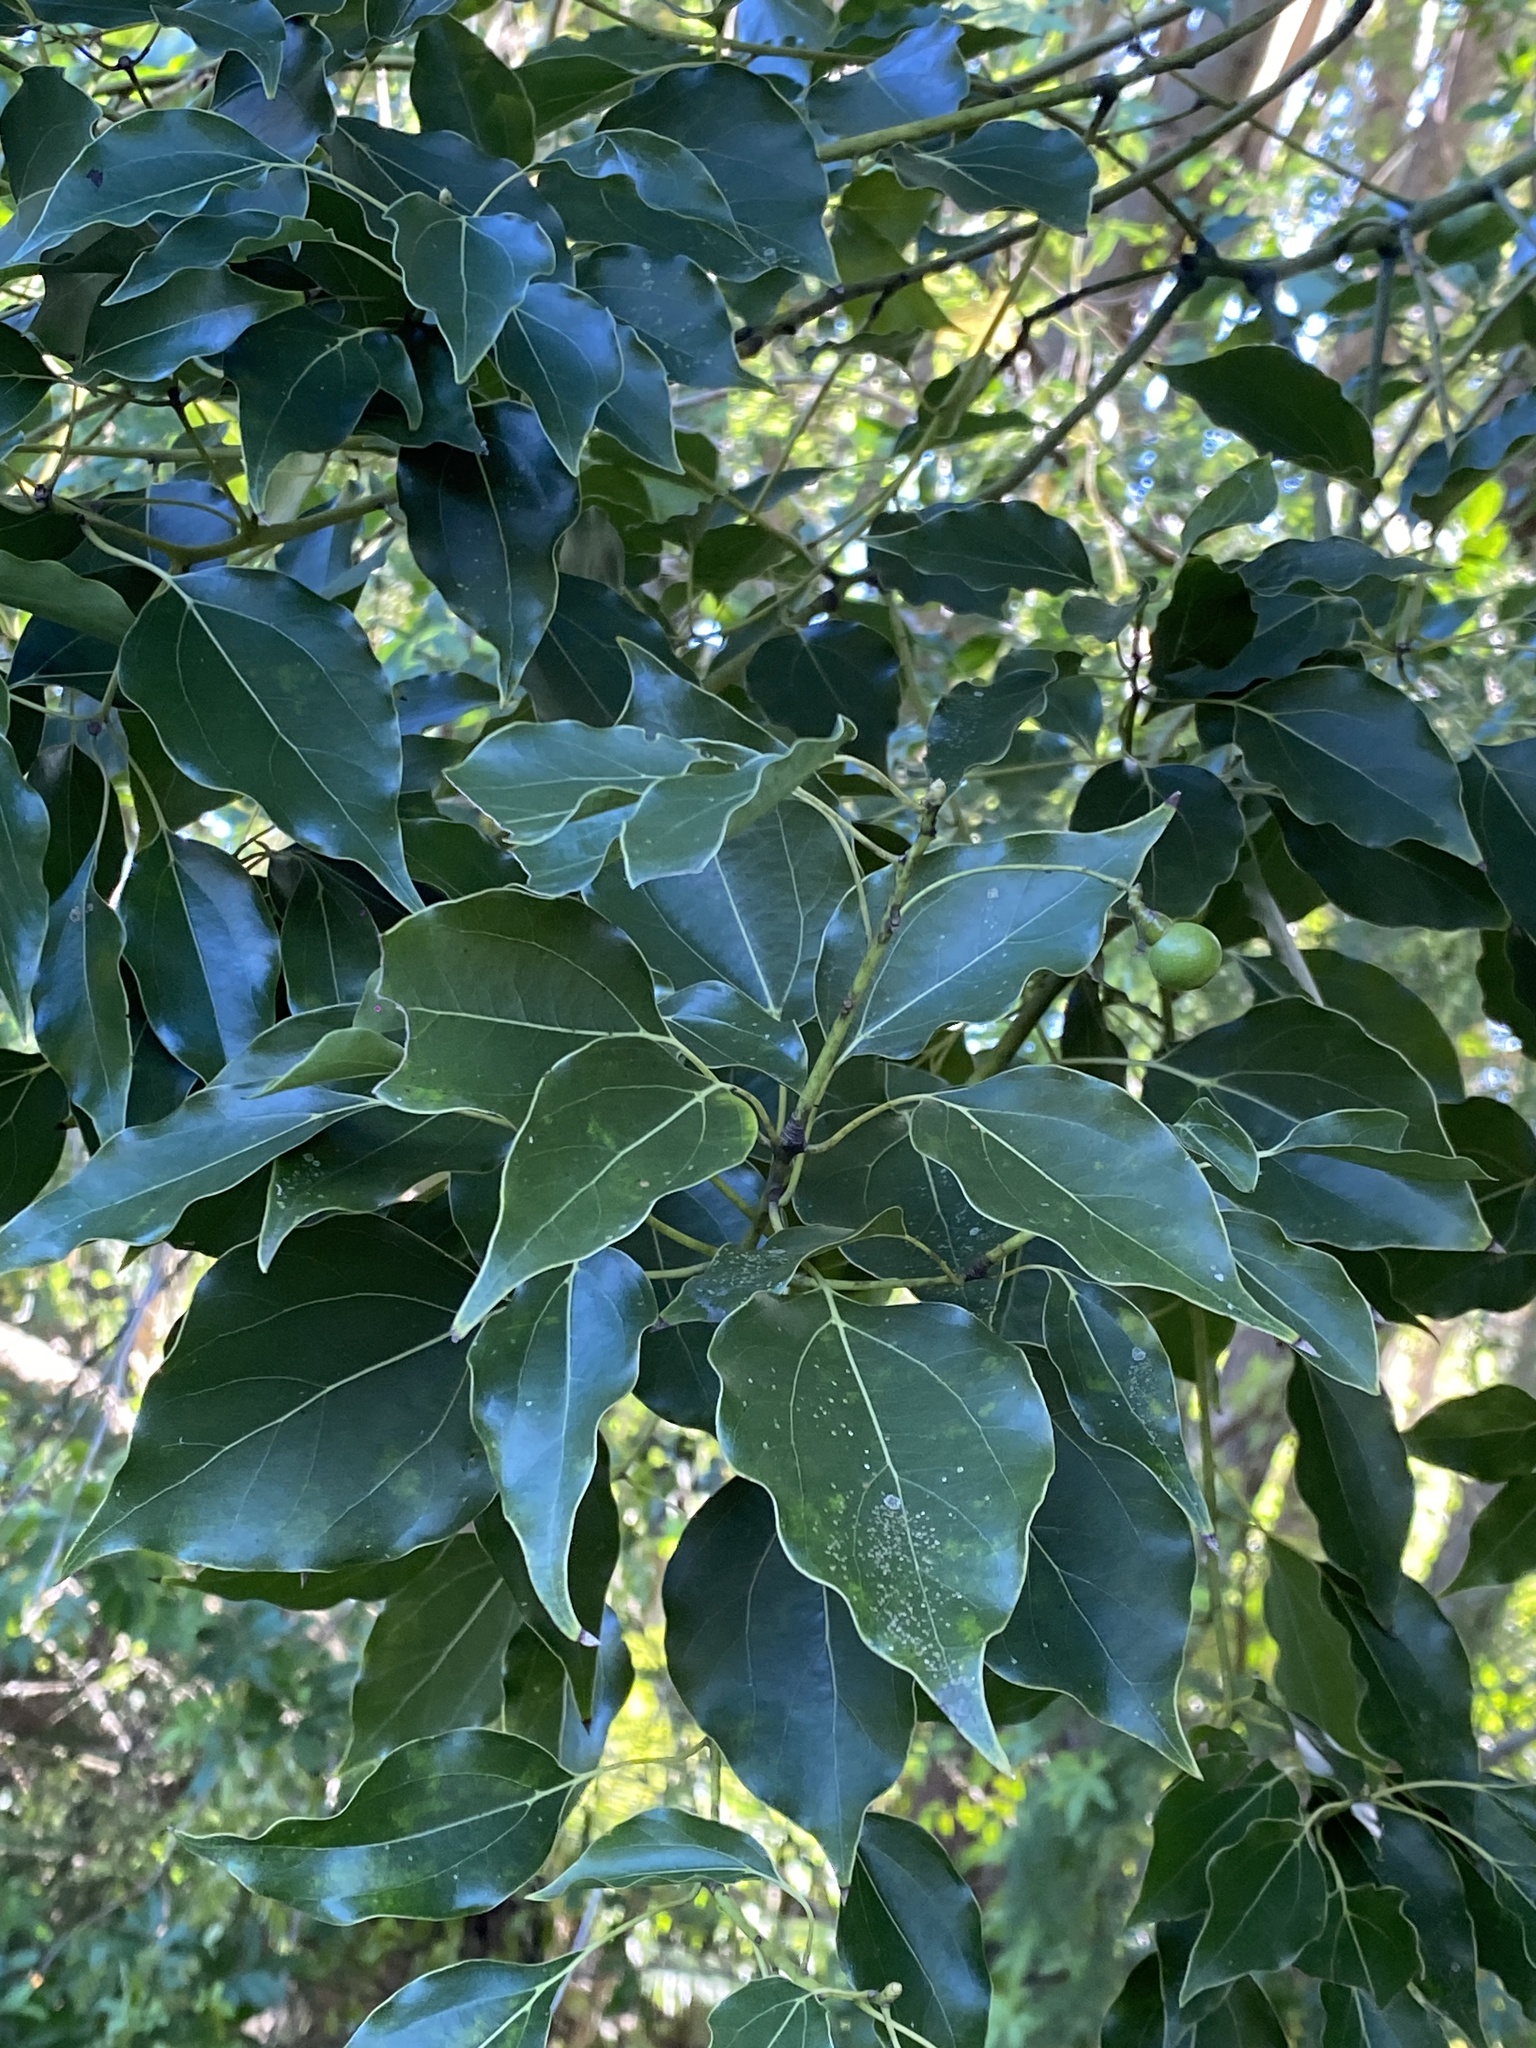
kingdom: Plantae
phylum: Tracheophyta
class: Magnoliopsida
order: Laurales
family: Lauraceae
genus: Cinnamomum
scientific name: Cinnamomum camphora
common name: Camphortree
